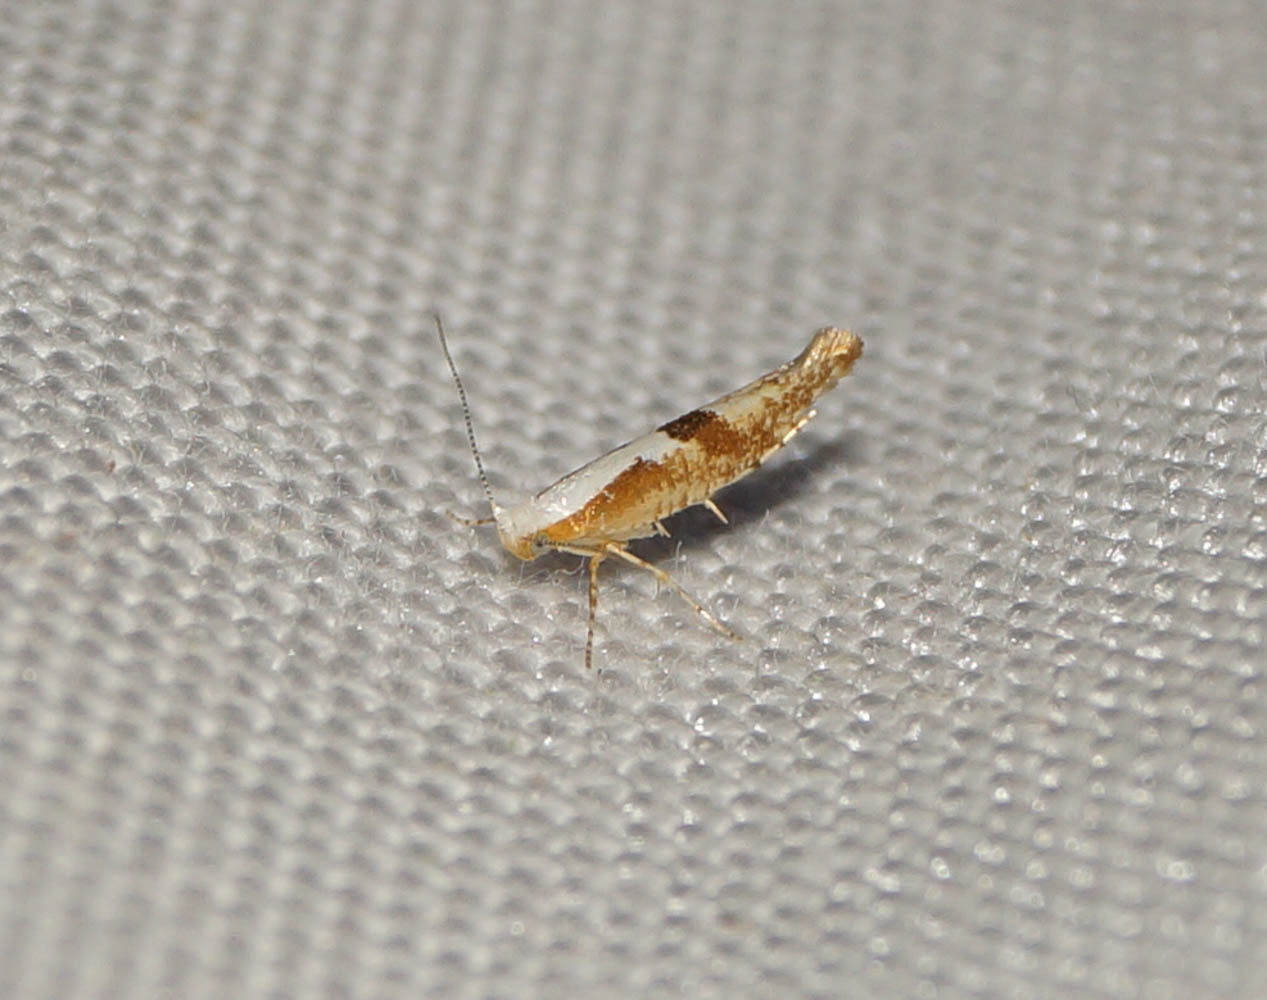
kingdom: Animalia
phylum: Arthropoda
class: Insecta
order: Lepidoptera
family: Argyresthiidae
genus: Argyresthia
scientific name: Argyresthia pruniella
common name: Cherry fruit moth
